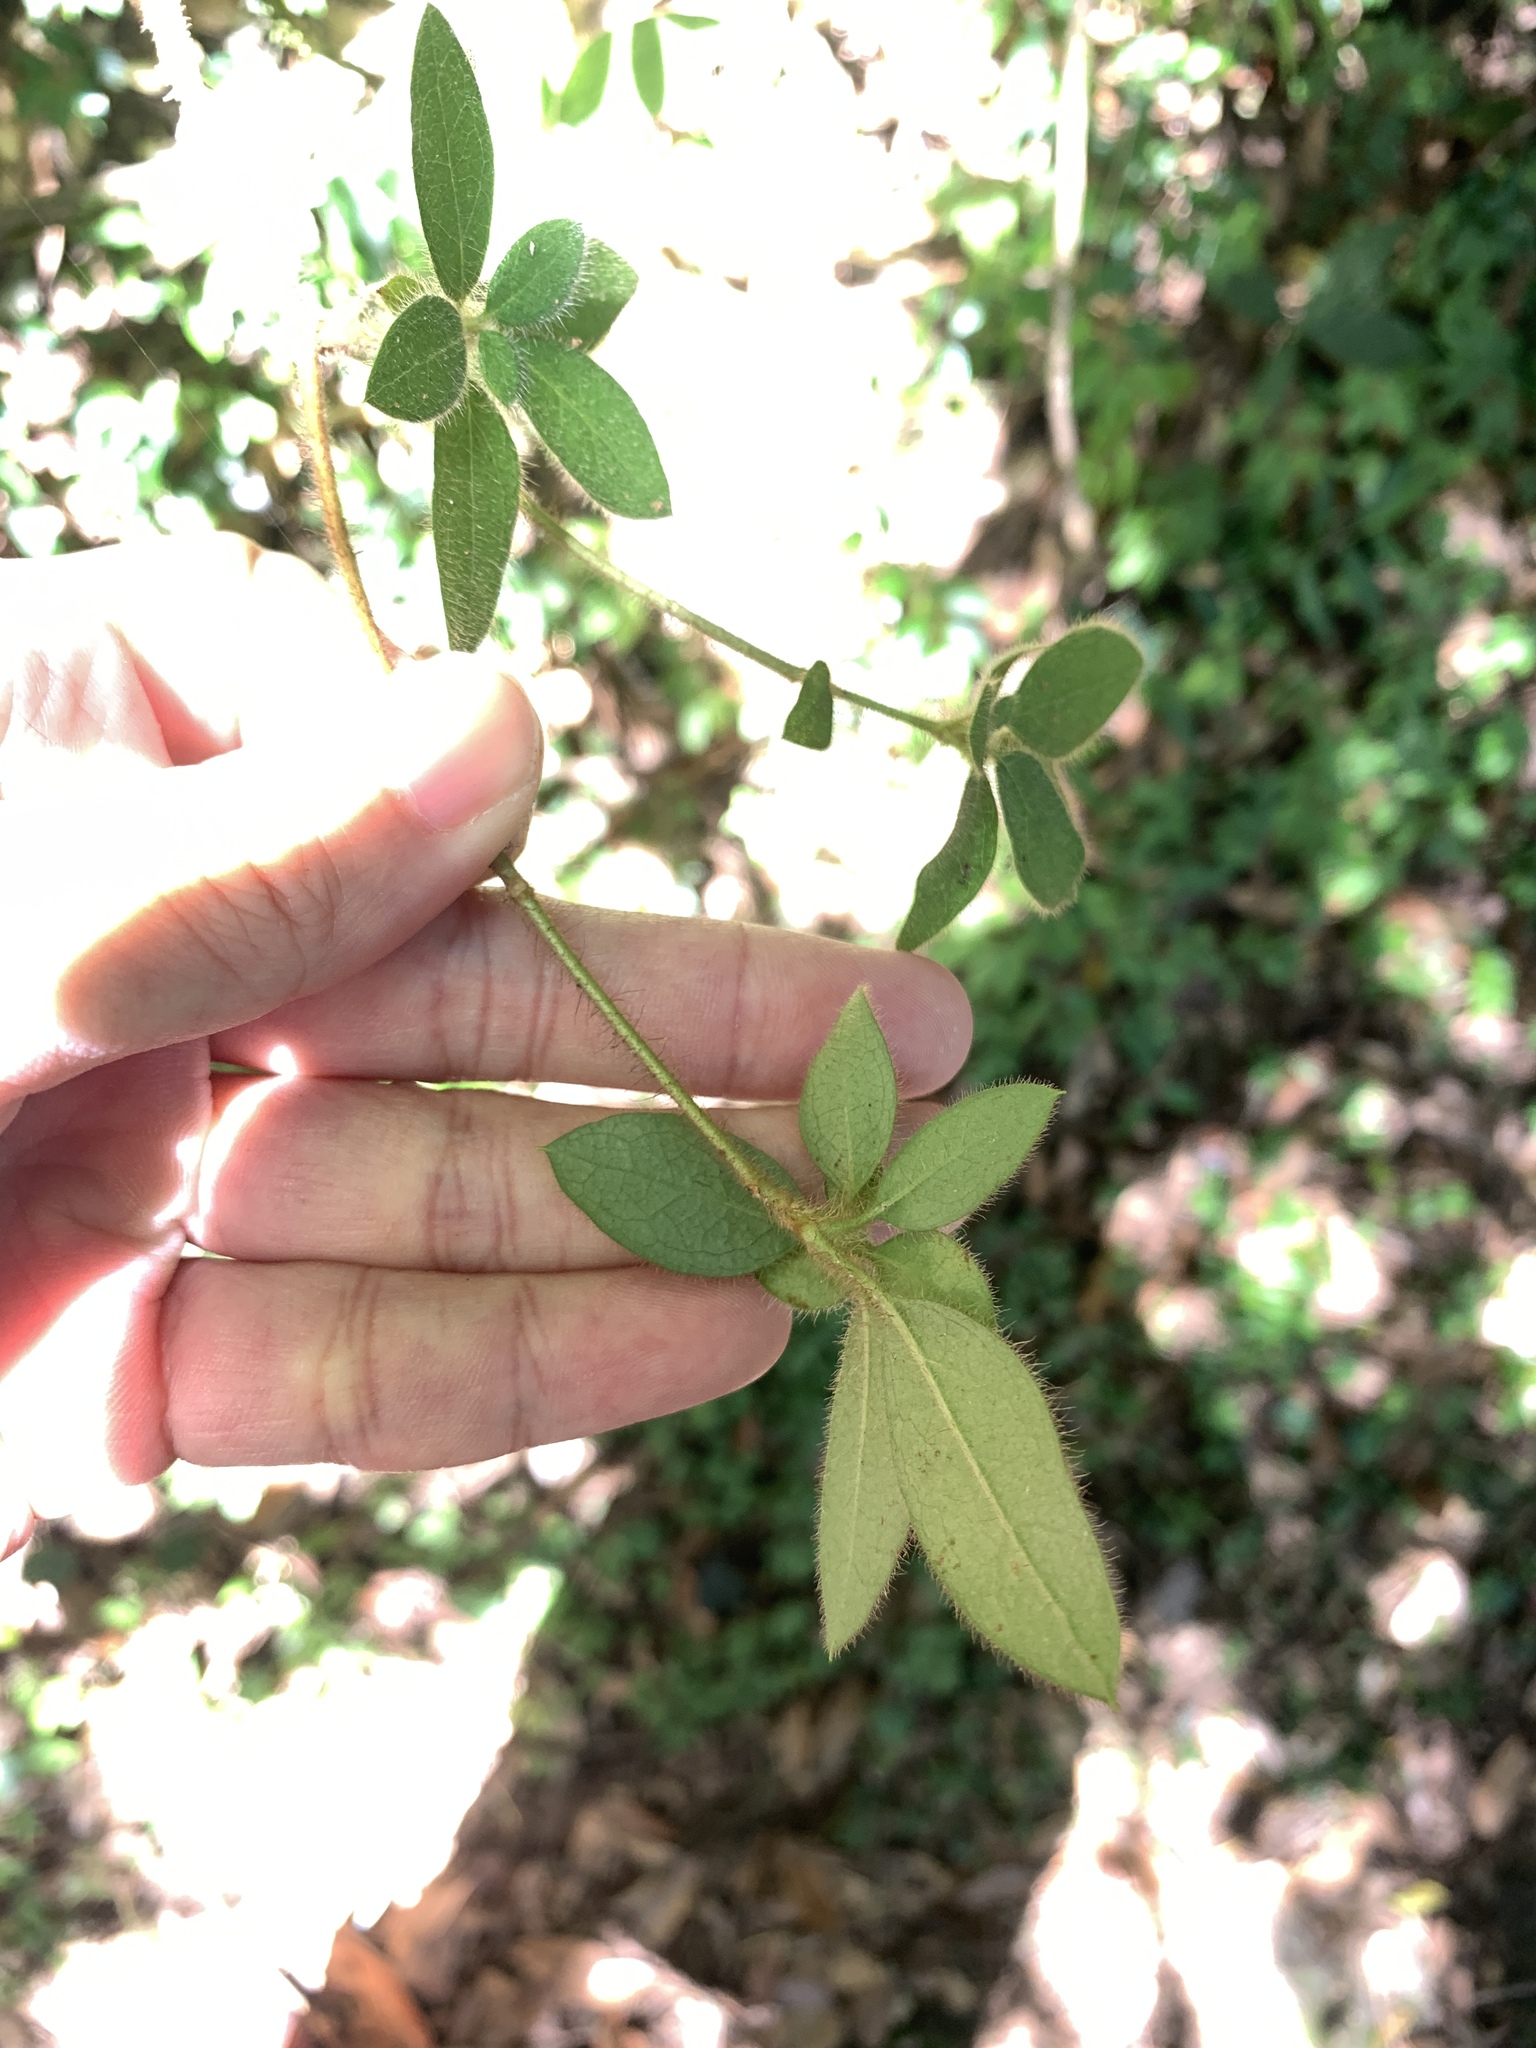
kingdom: Plantae
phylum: Tracheophyta
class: Magnoliopsida
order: Ericales
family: Ericaceae
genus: Rhododendron
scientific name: Rhododendron oldhamii
